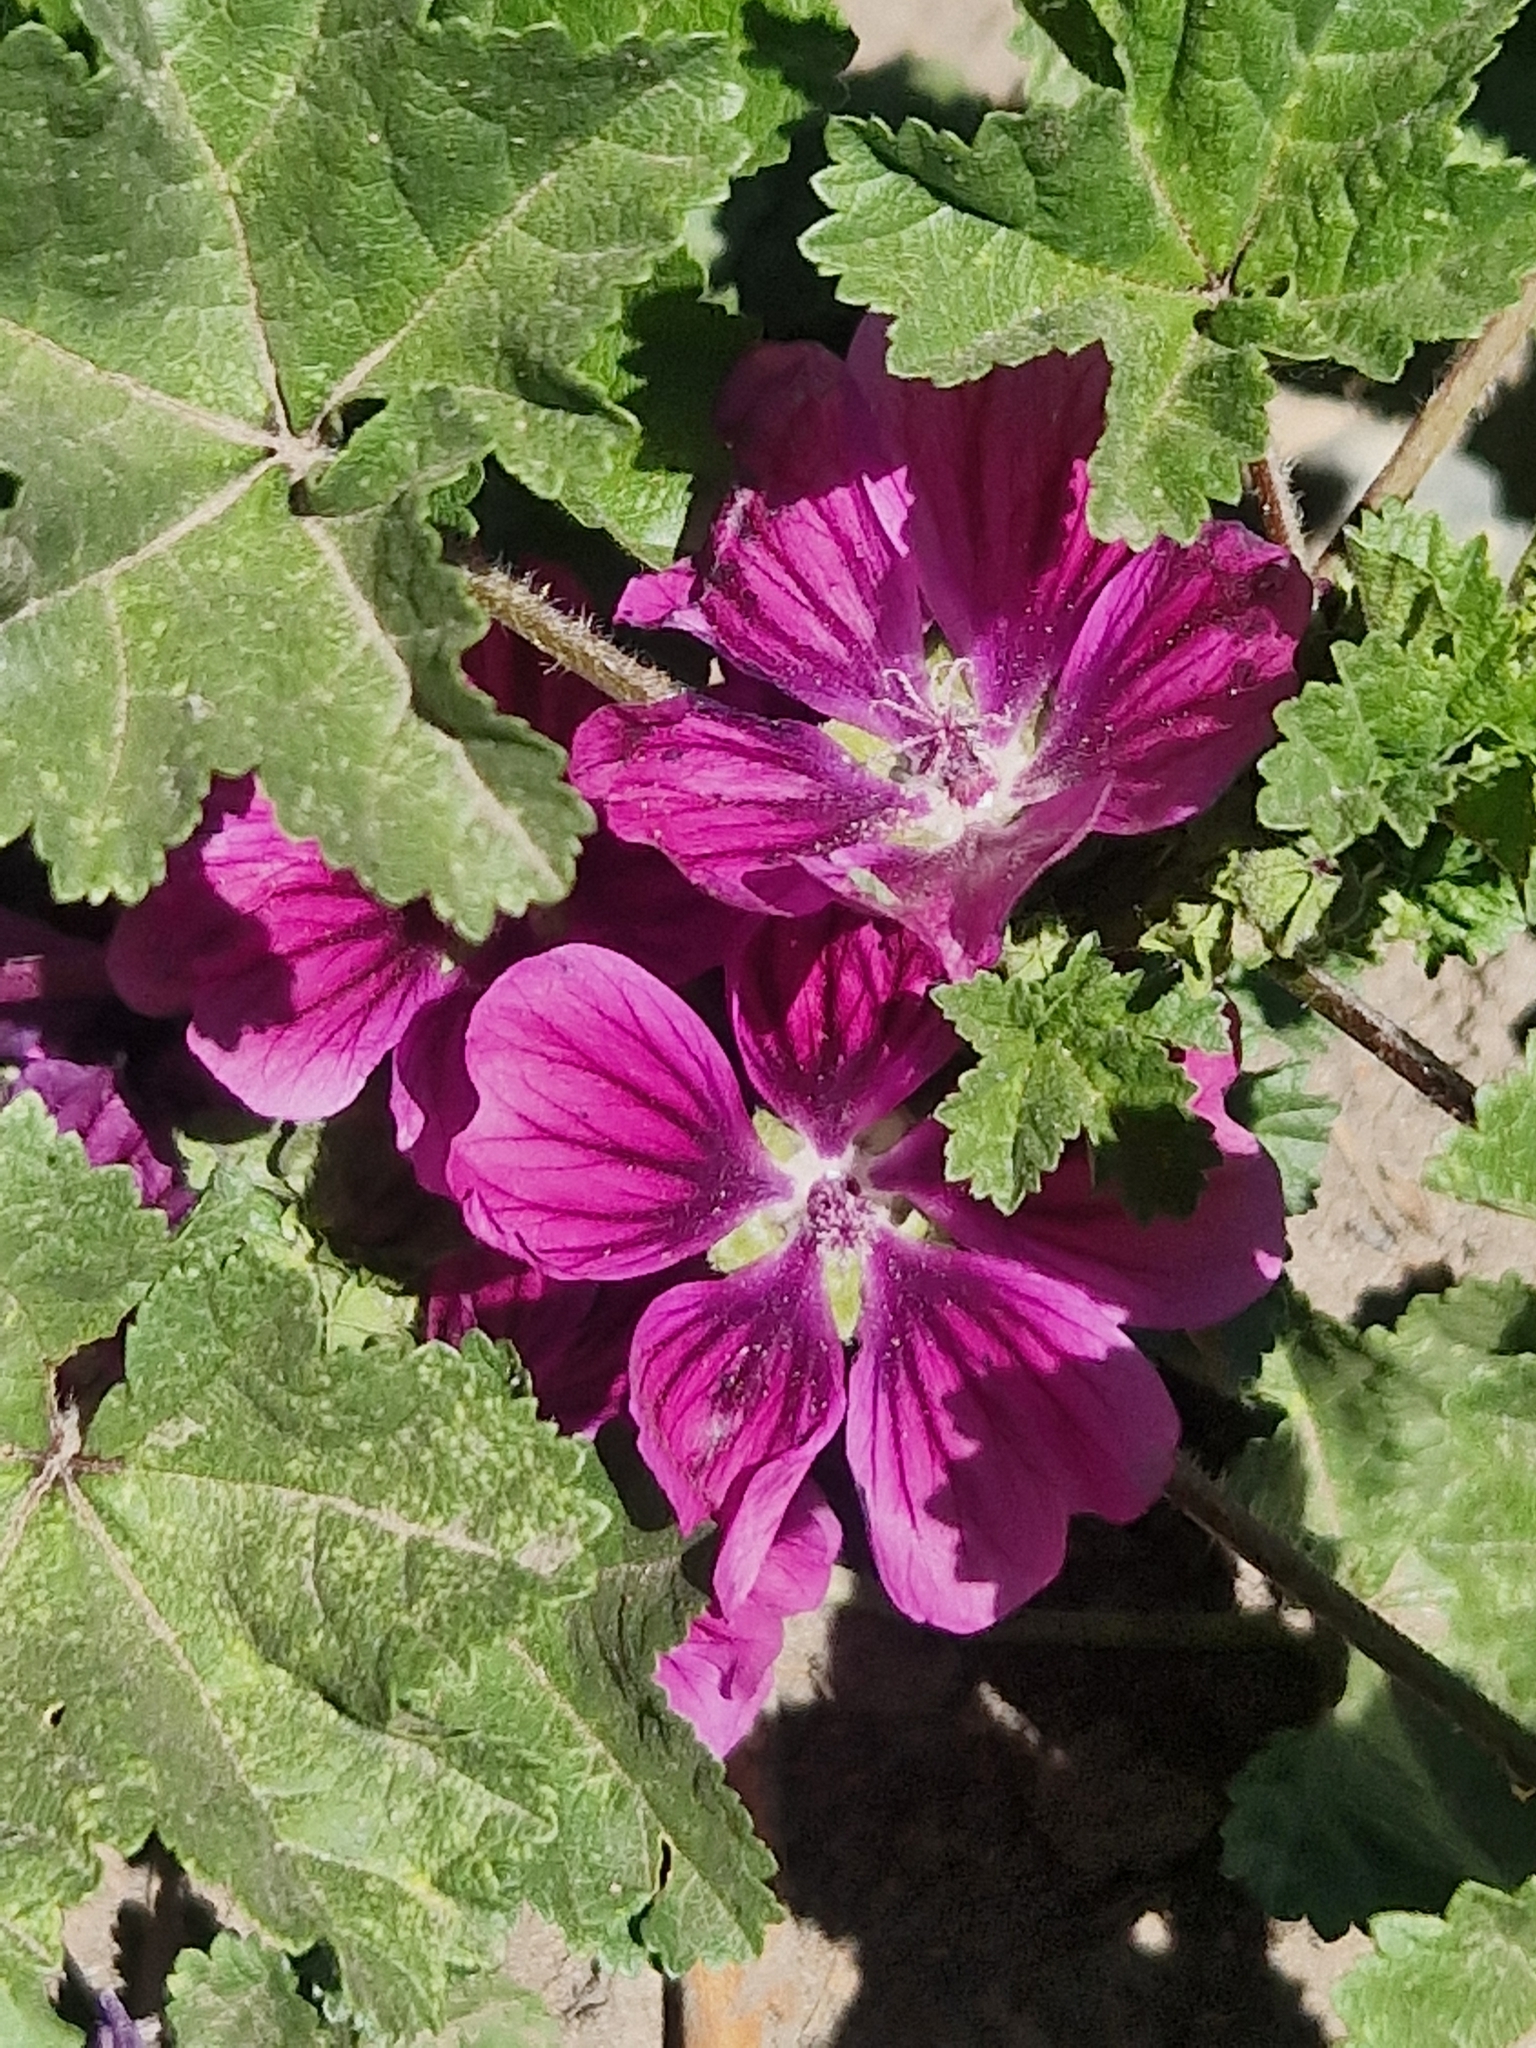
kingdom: Plantae
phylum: Tracheophyta
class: Magnoliopsida
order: Malvales
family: Malvaceae
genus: Malva
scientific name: Malva sylvestris
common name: Common mallow
